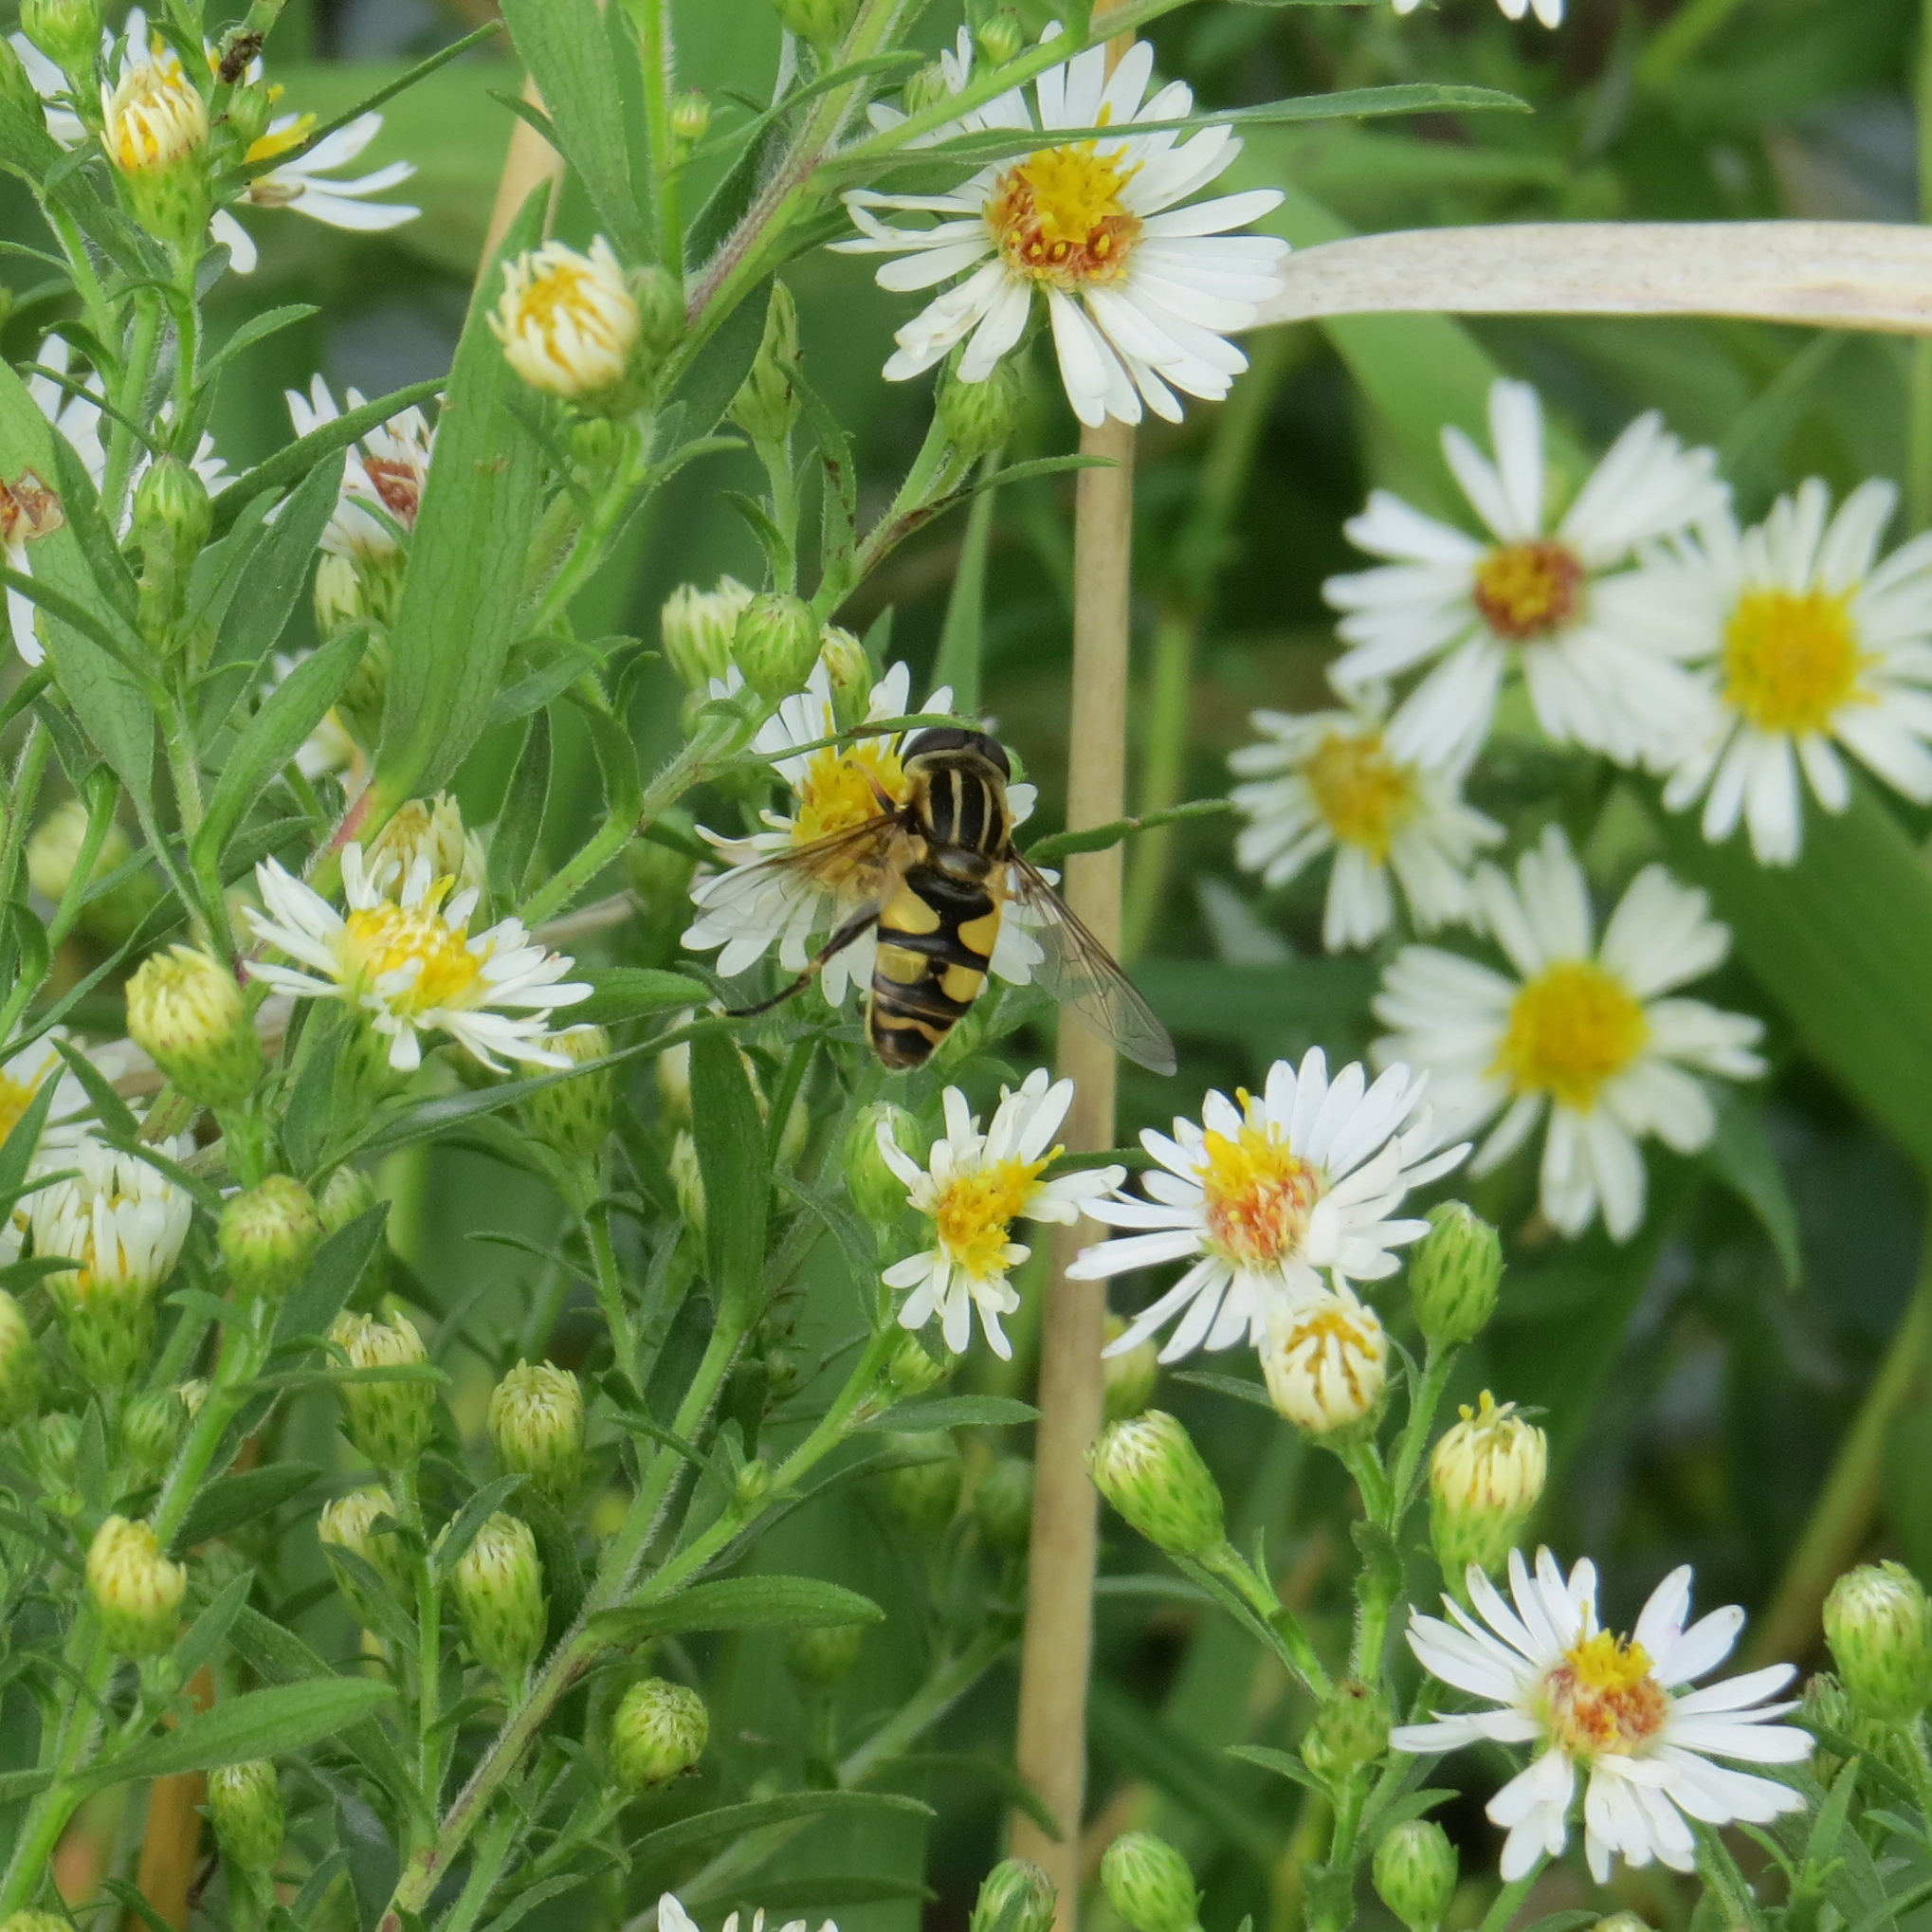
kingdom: Animalia
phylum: Arthropoda
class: Insecta
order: Diptera
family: Syrphidae
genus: Helophilus
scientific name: Helophilus fasciatus
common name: Narrow-headed marsh fly
